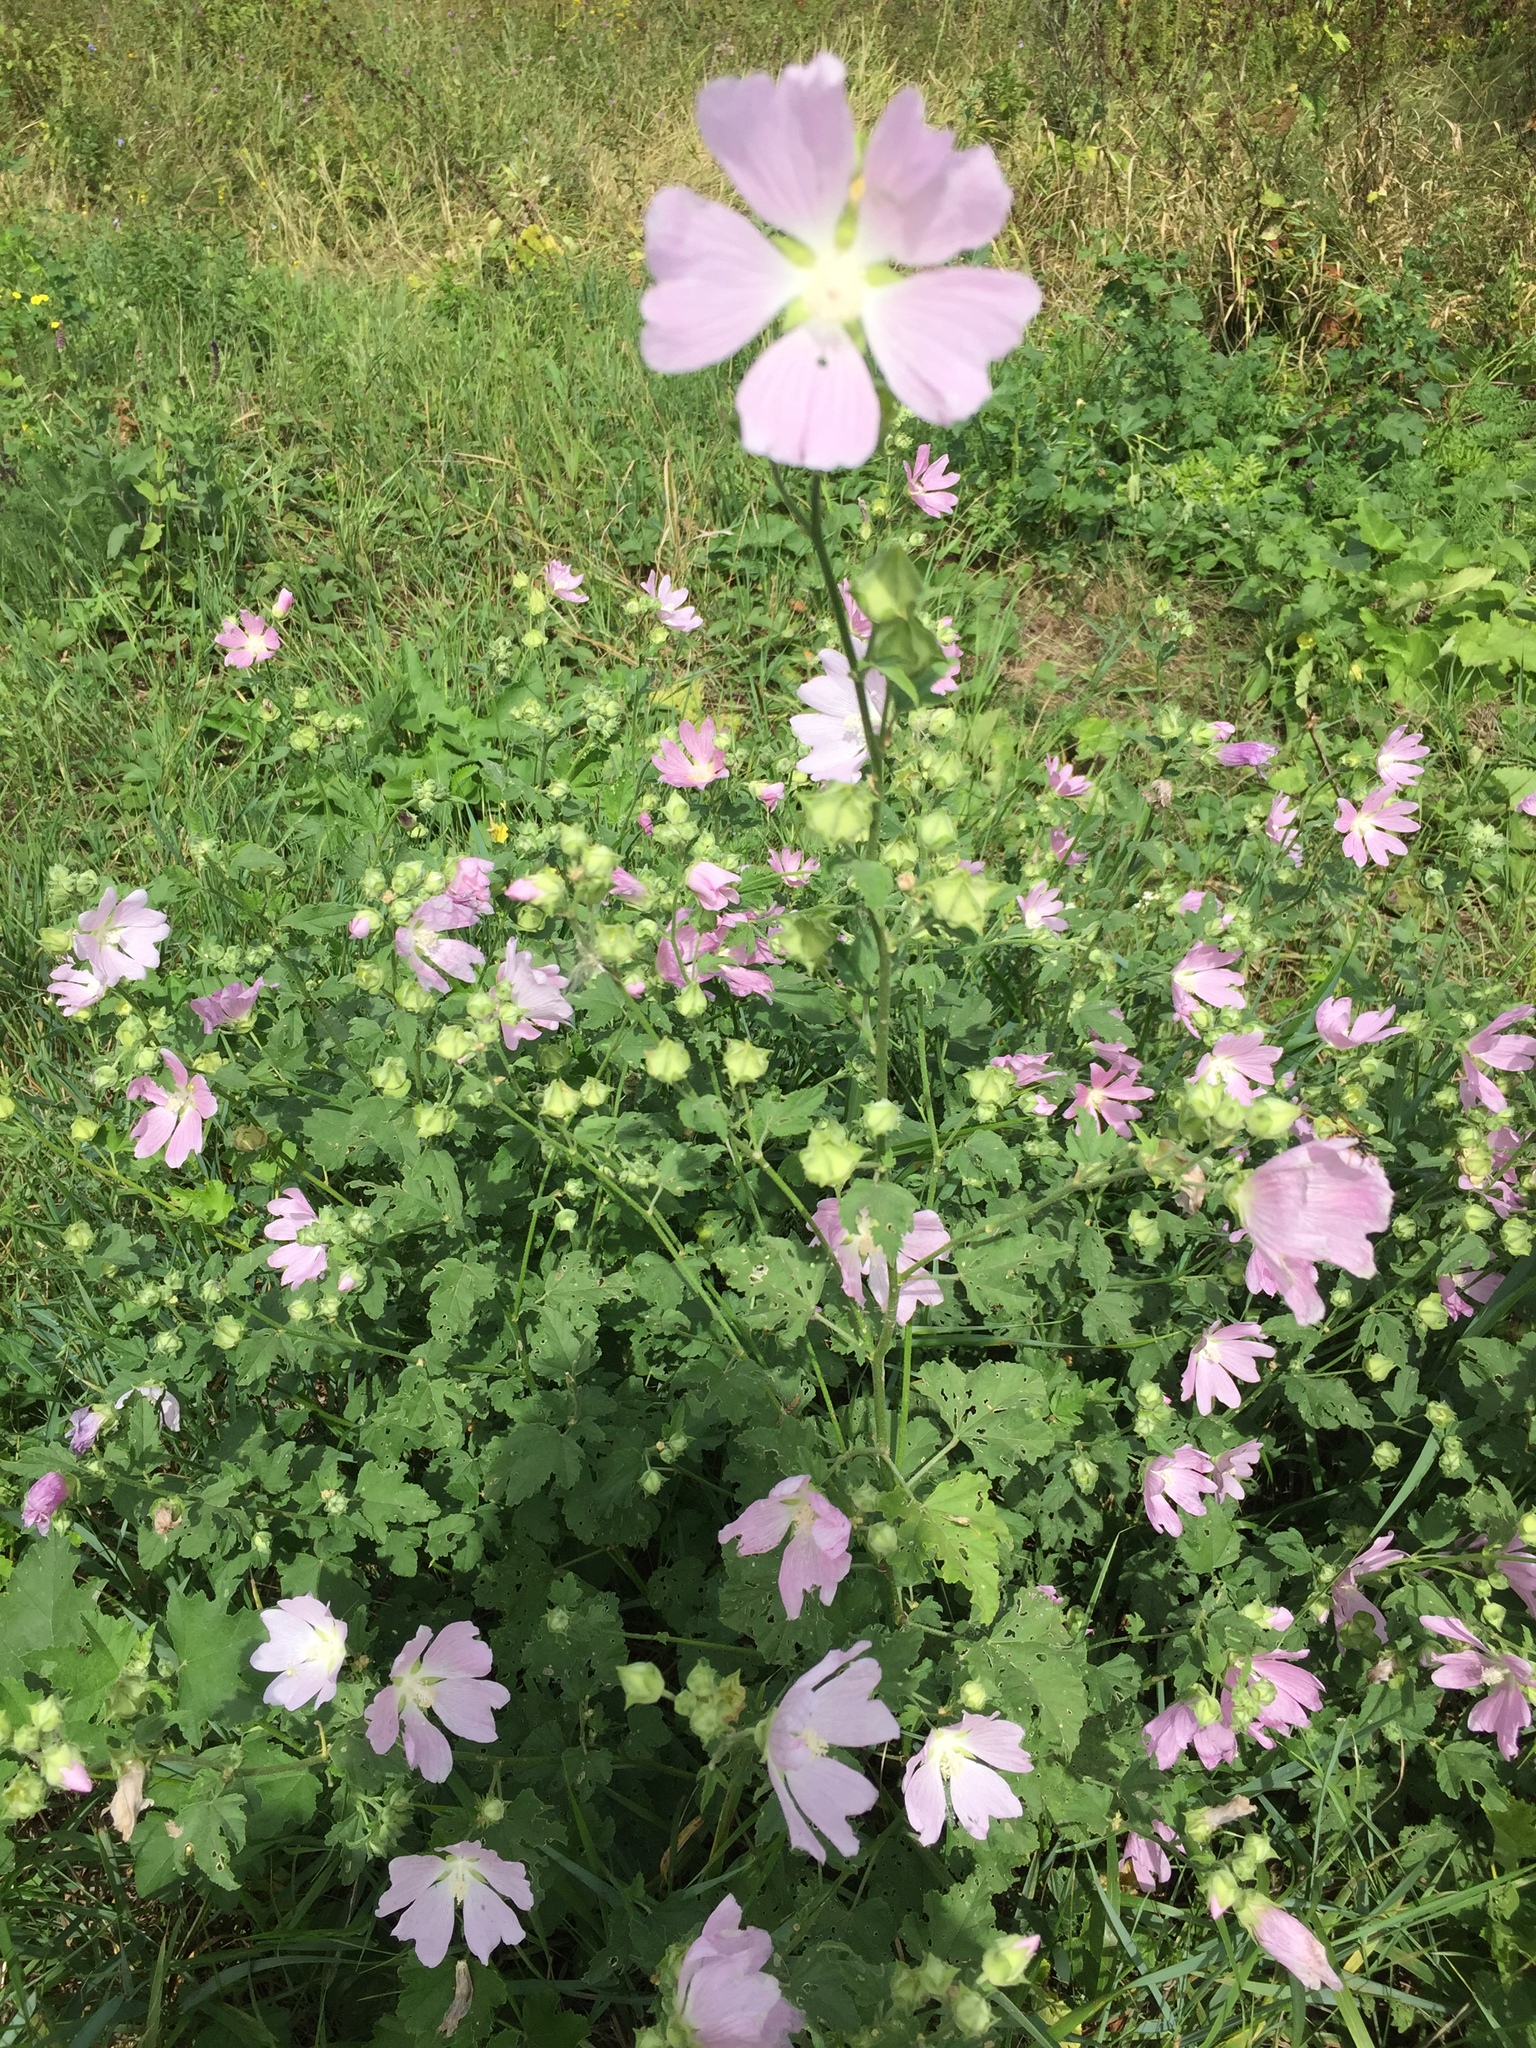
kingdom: Plantae
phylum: Tracheophyta
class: Magnoliopsida
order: Malvales
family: Malvaceae
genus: Malva
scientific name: Malva thuringiaca
